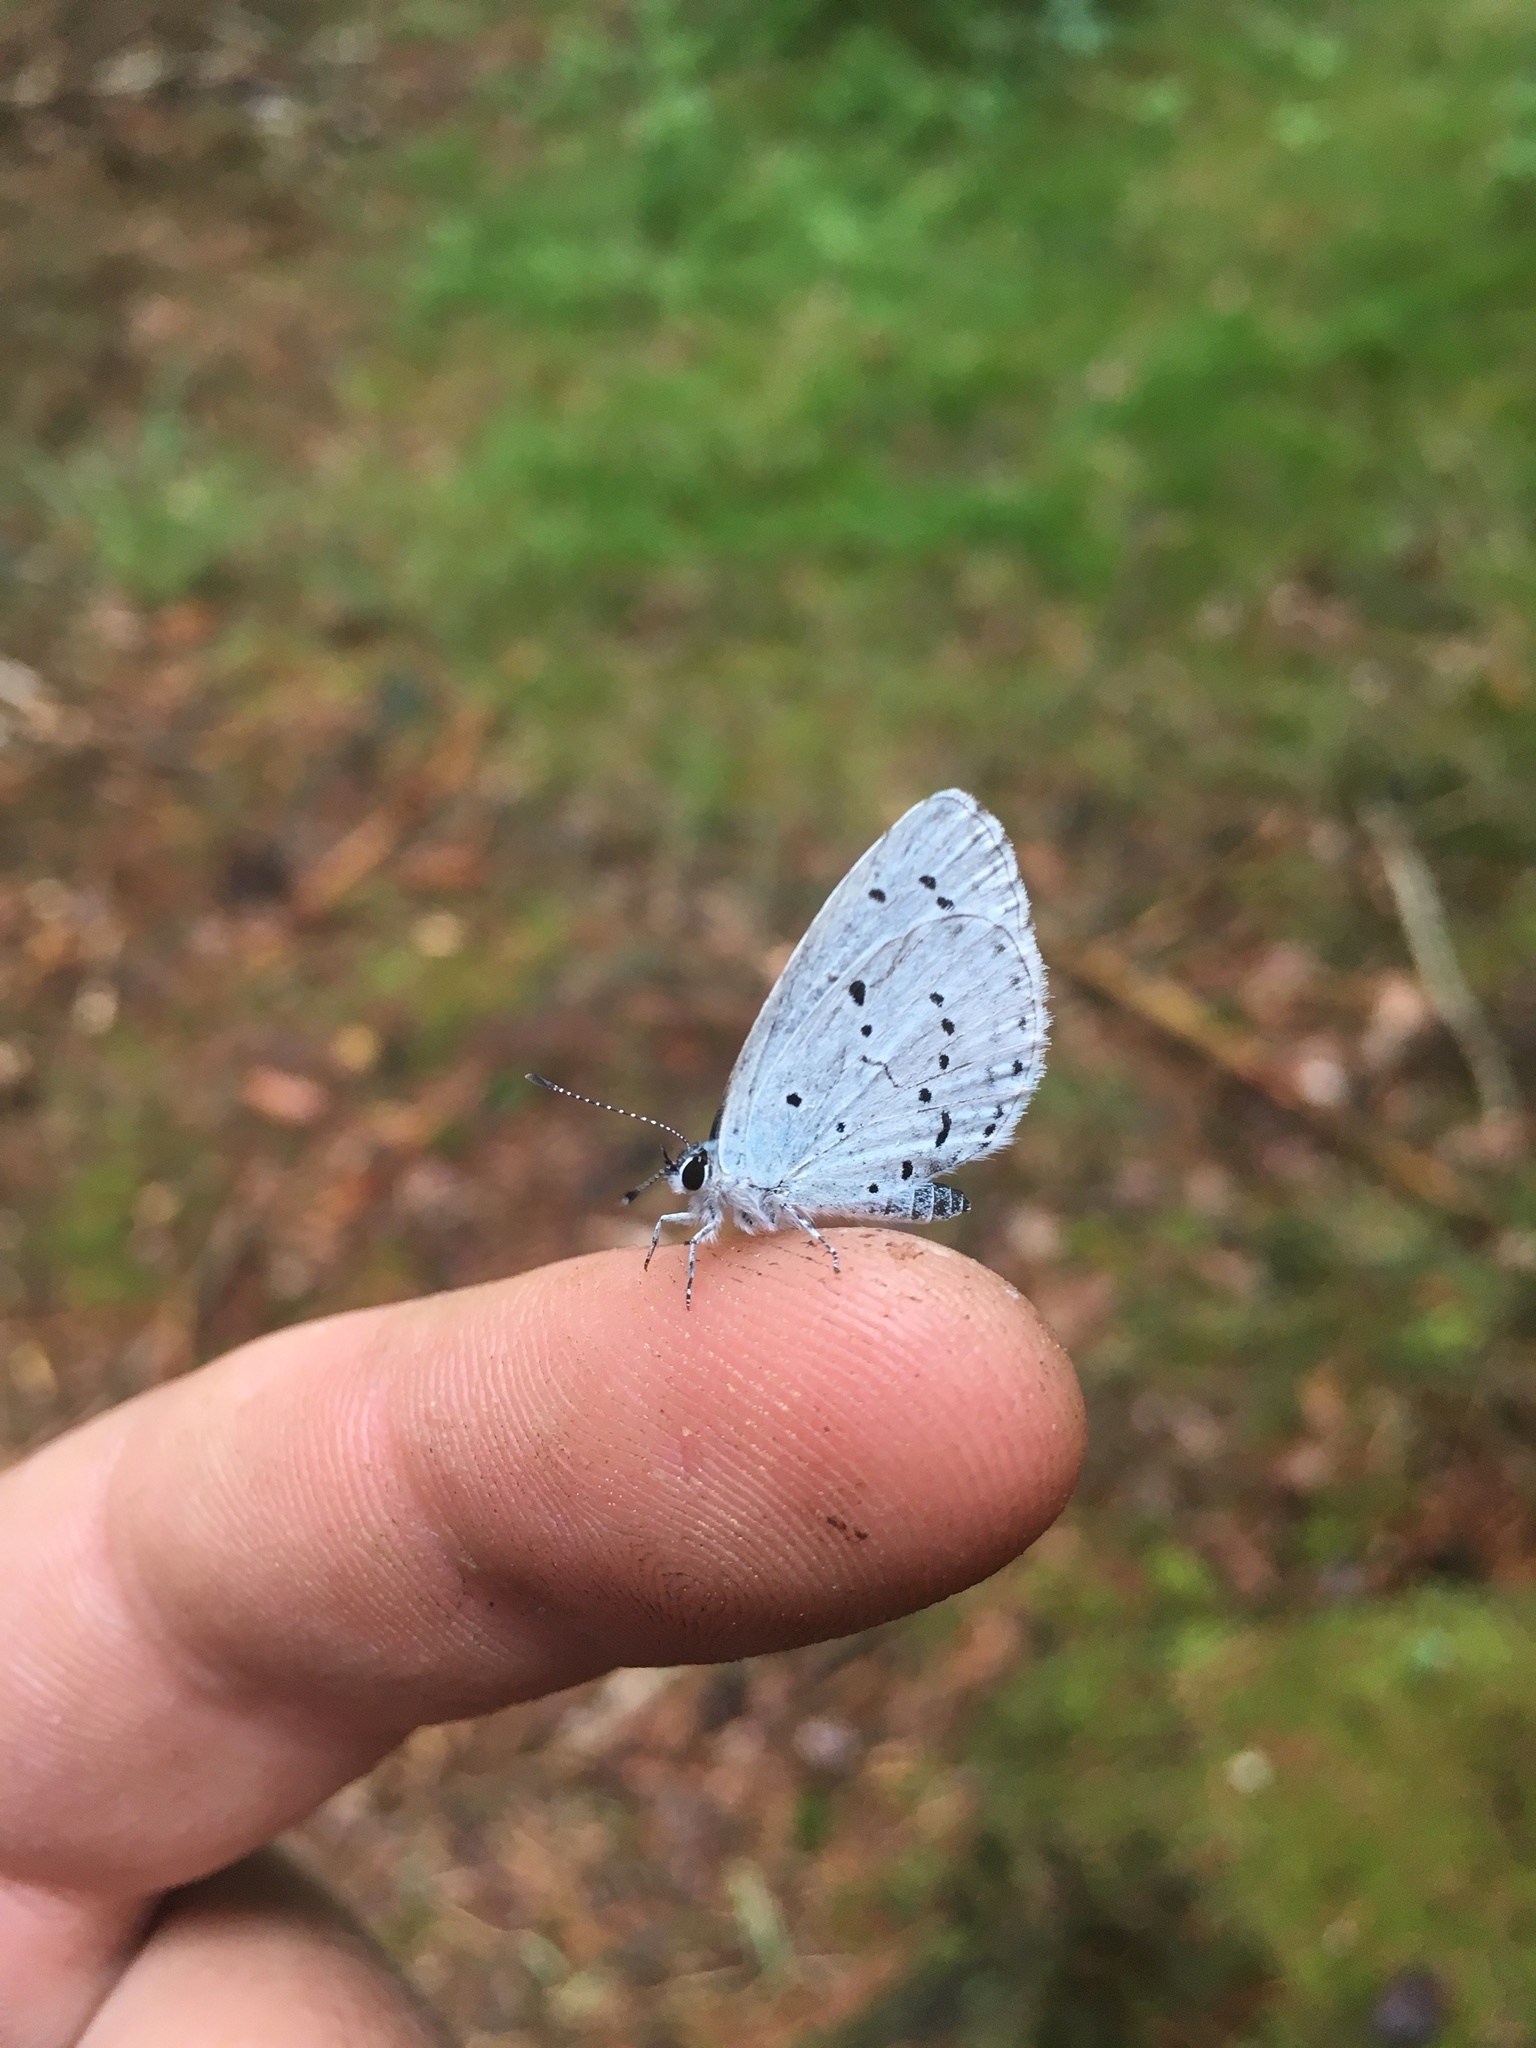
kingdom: Animalia
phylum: Arthropoda
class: Insecta
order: Lepidoptera
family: Lycaenidae
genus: Celastrina
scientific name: Celastrina argiolus
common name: Holly blue
